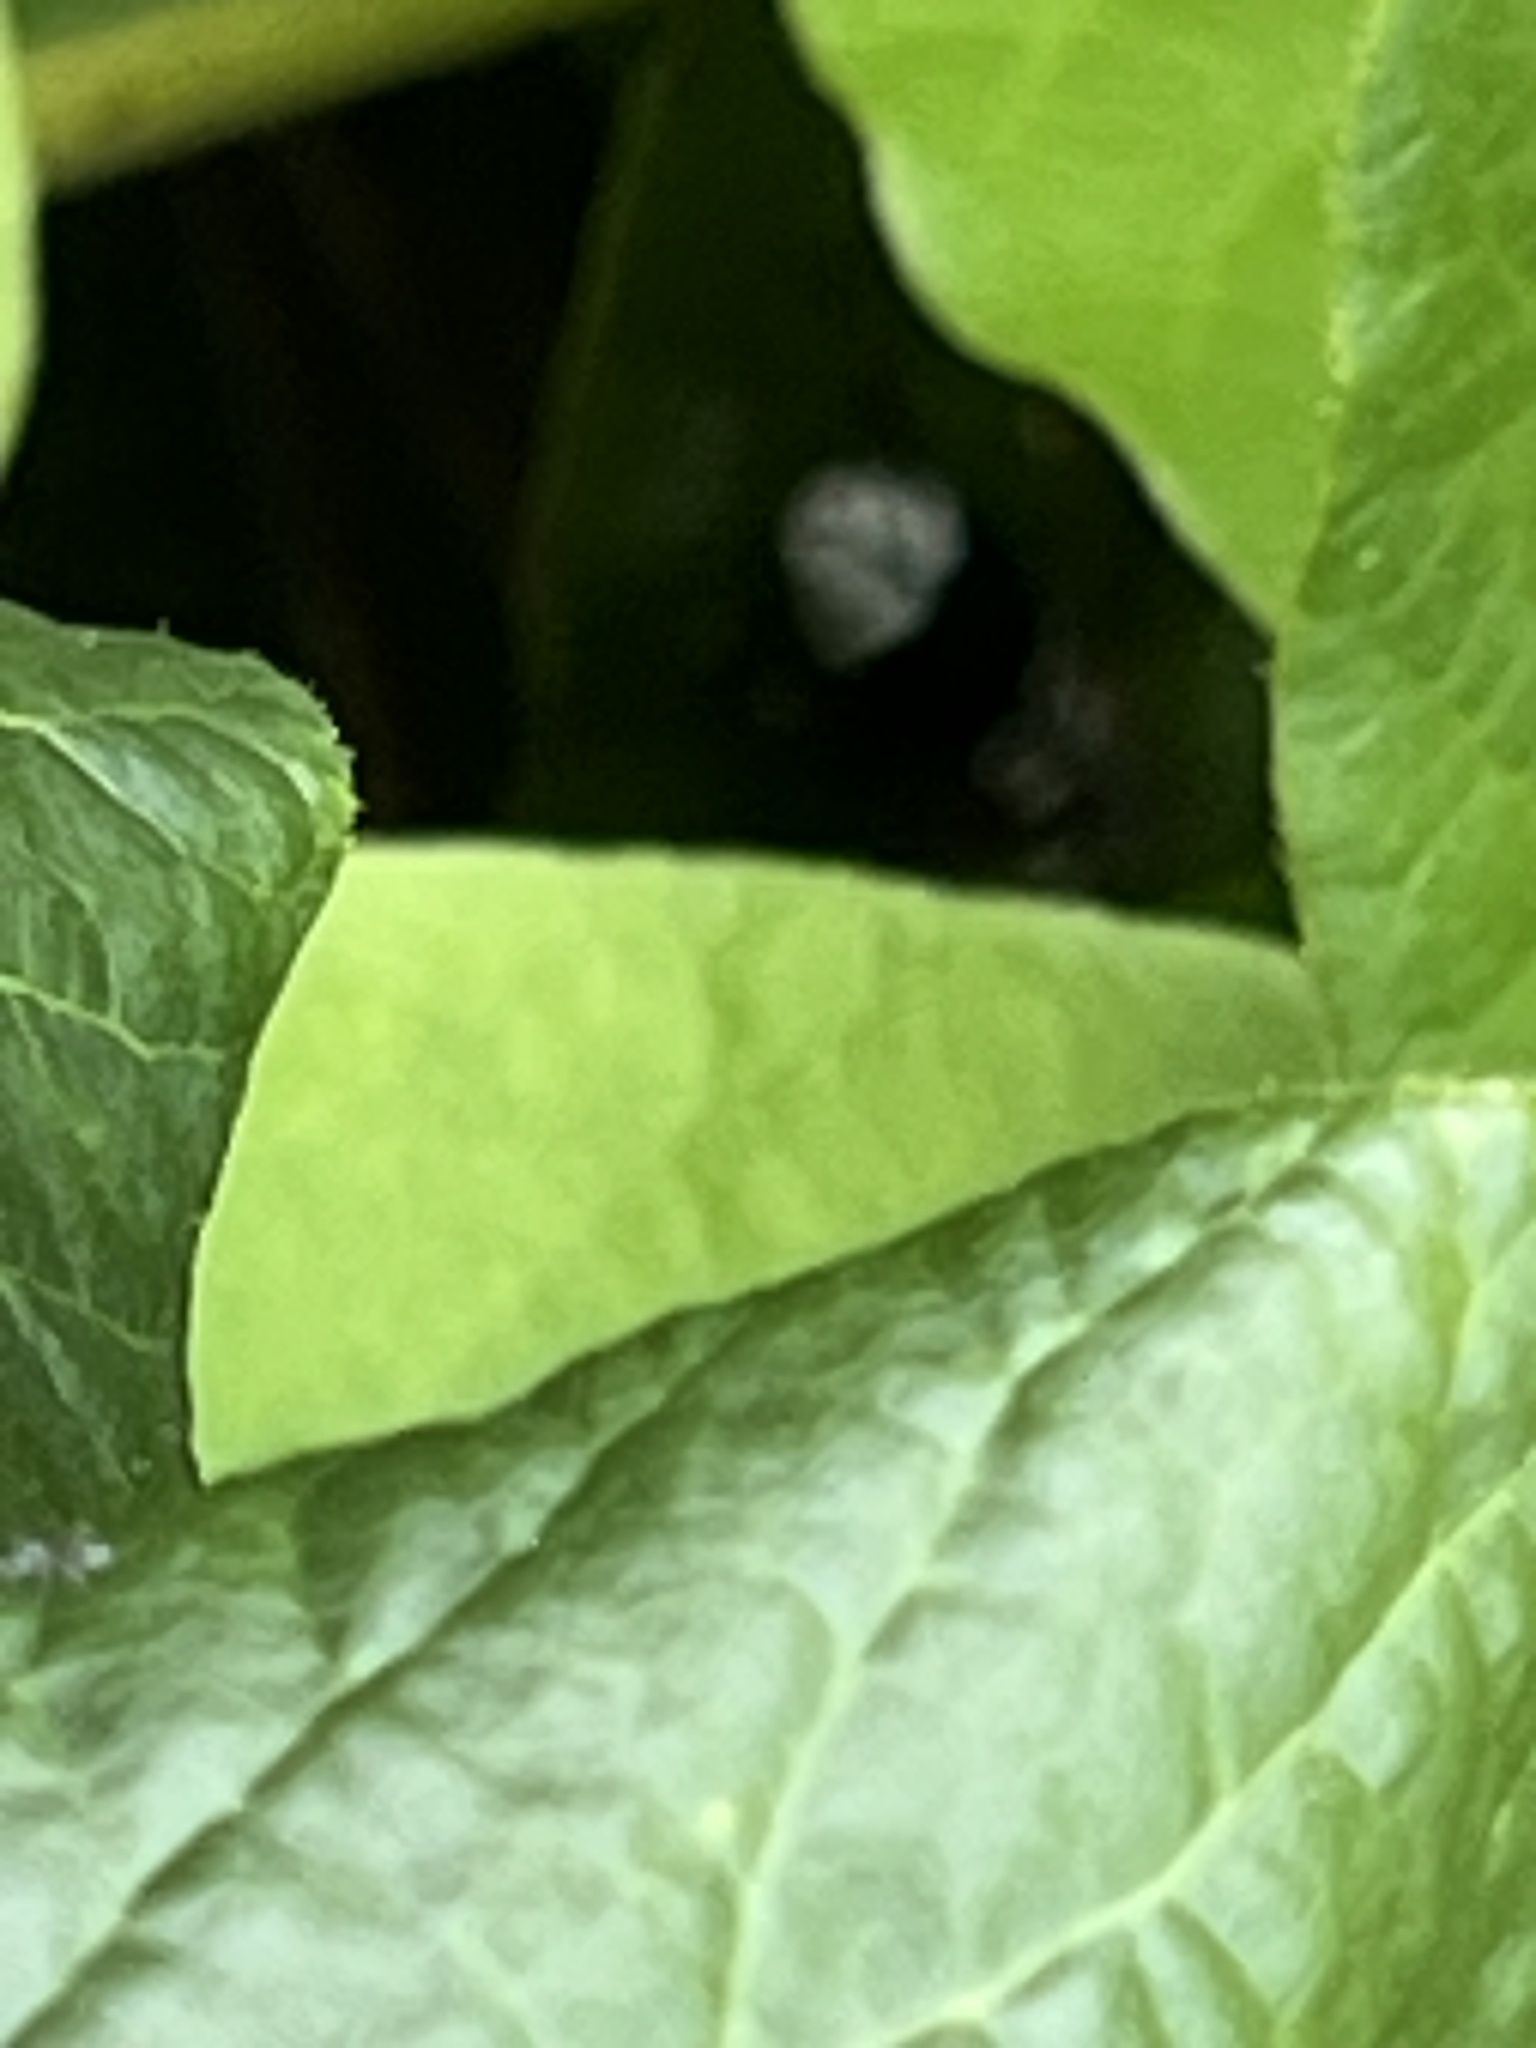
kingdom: Animalia
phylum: Arthropoda
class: Insecta
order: Hymenoptera
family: Vespidae
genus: Dolichovespula
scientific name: Dolichovespula maculata
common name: Bald-faced hornet
